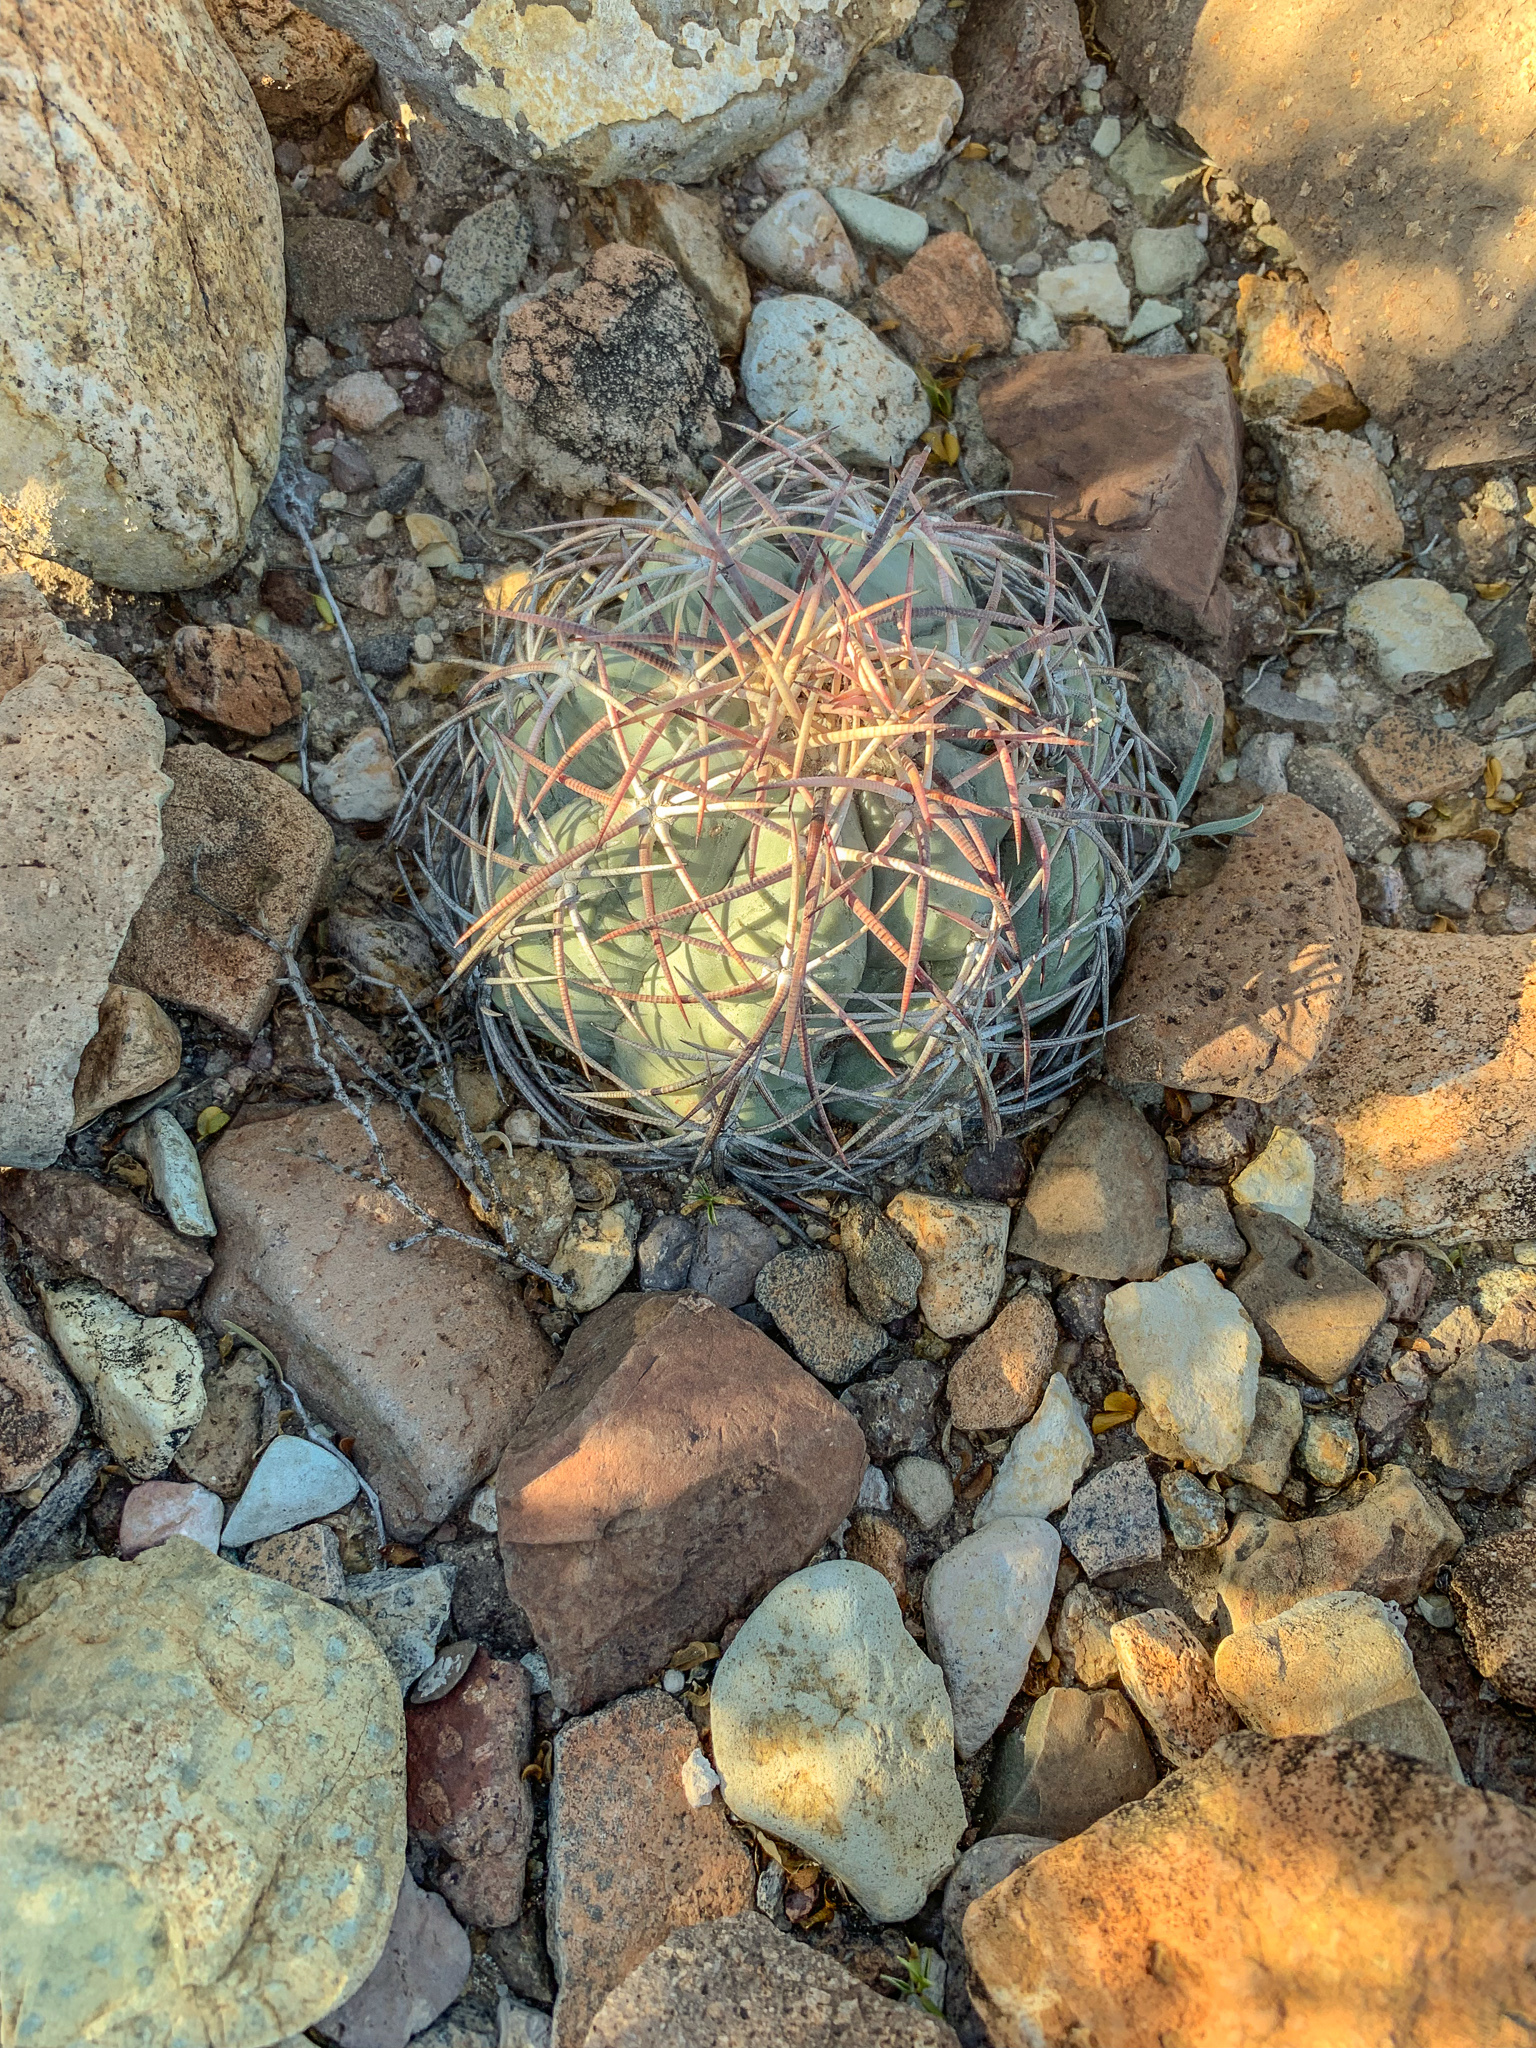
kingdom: Plantae
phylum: Tracheophyta
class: Magnoliopsida
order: Caryophyllales
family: Cactaceae
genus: Echinocactus
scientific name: Echinocactus horizonthalonius
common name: Devilshead
